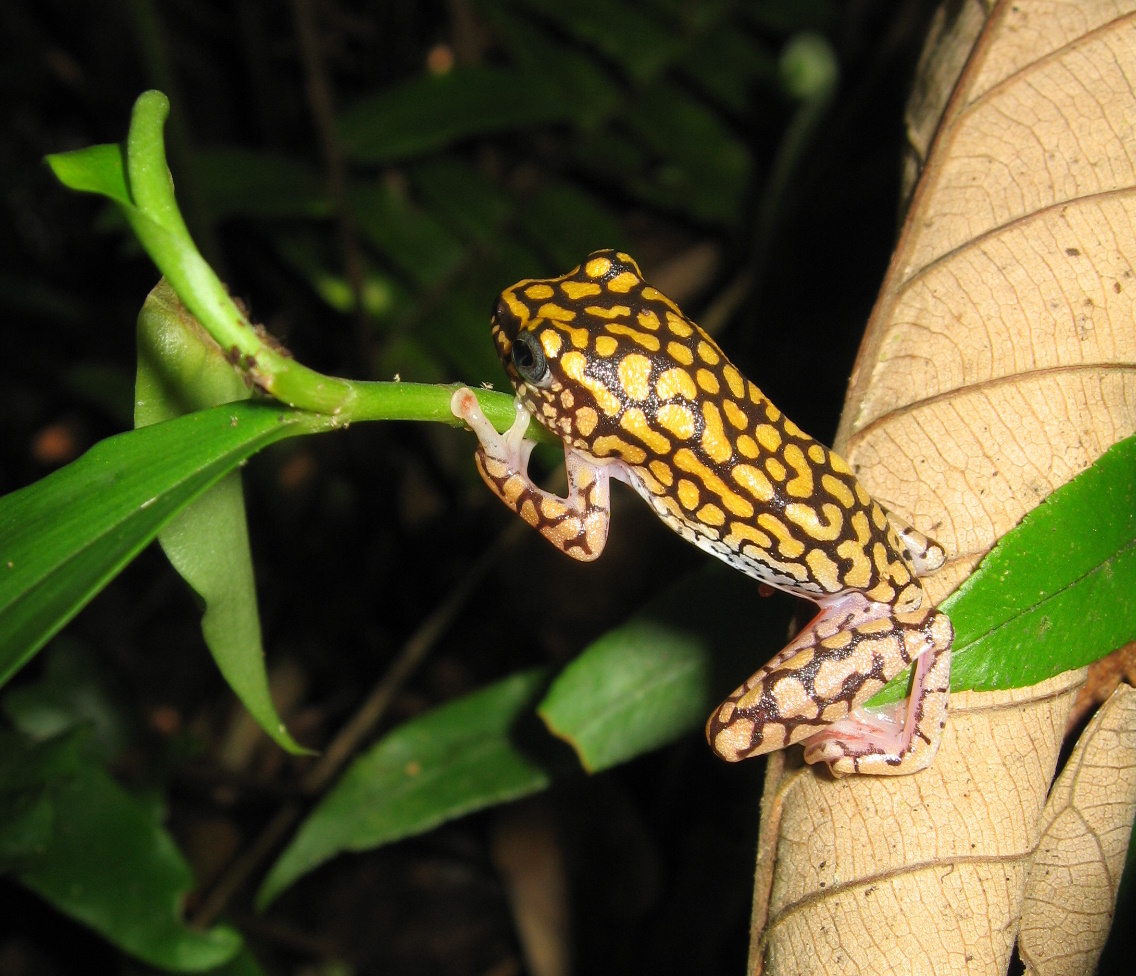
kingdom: Animalia
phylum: Chordata
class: Amphibia
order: Anura
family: Hyperoliidae
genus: Hyperolius
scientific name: Hyperolius guttulatus
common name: Dotted reed frog
